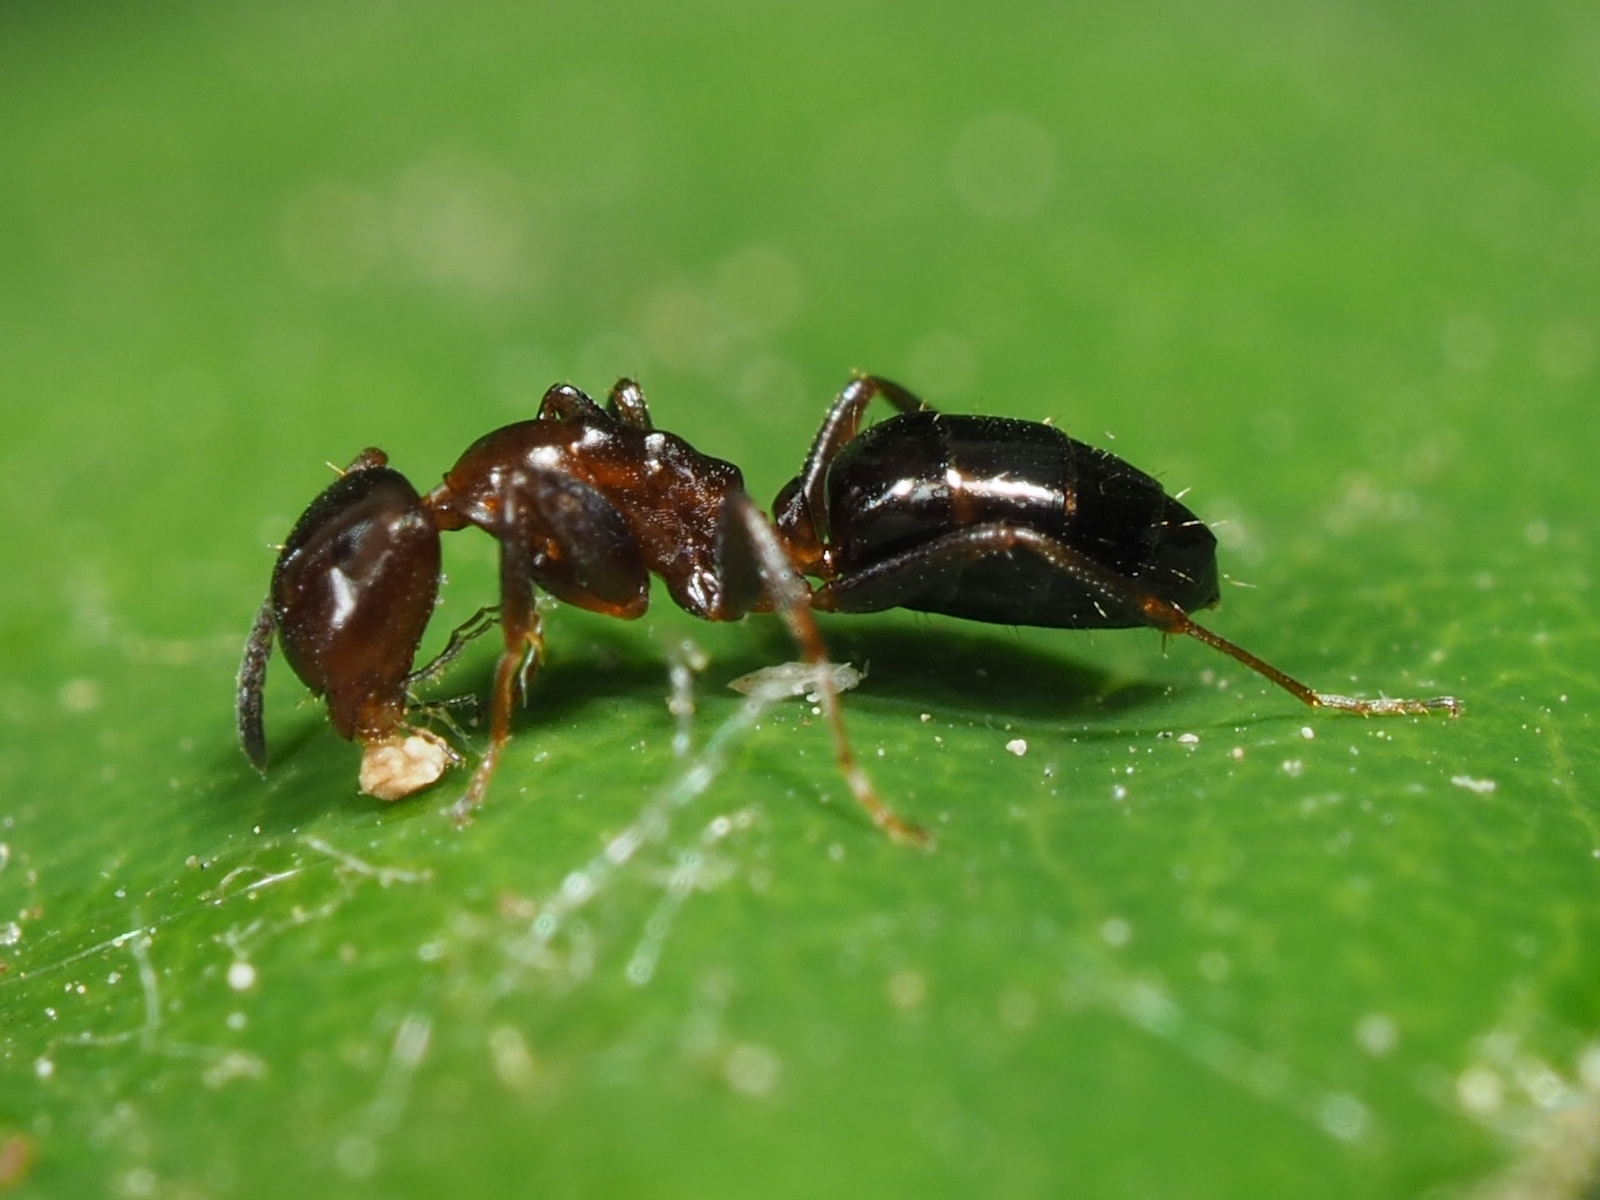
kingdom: Animalia
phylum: Arthropoda
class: Insecta
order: Hymenoptera
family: Formicidae
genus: Camponotus
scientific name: Camponotus truncatus
